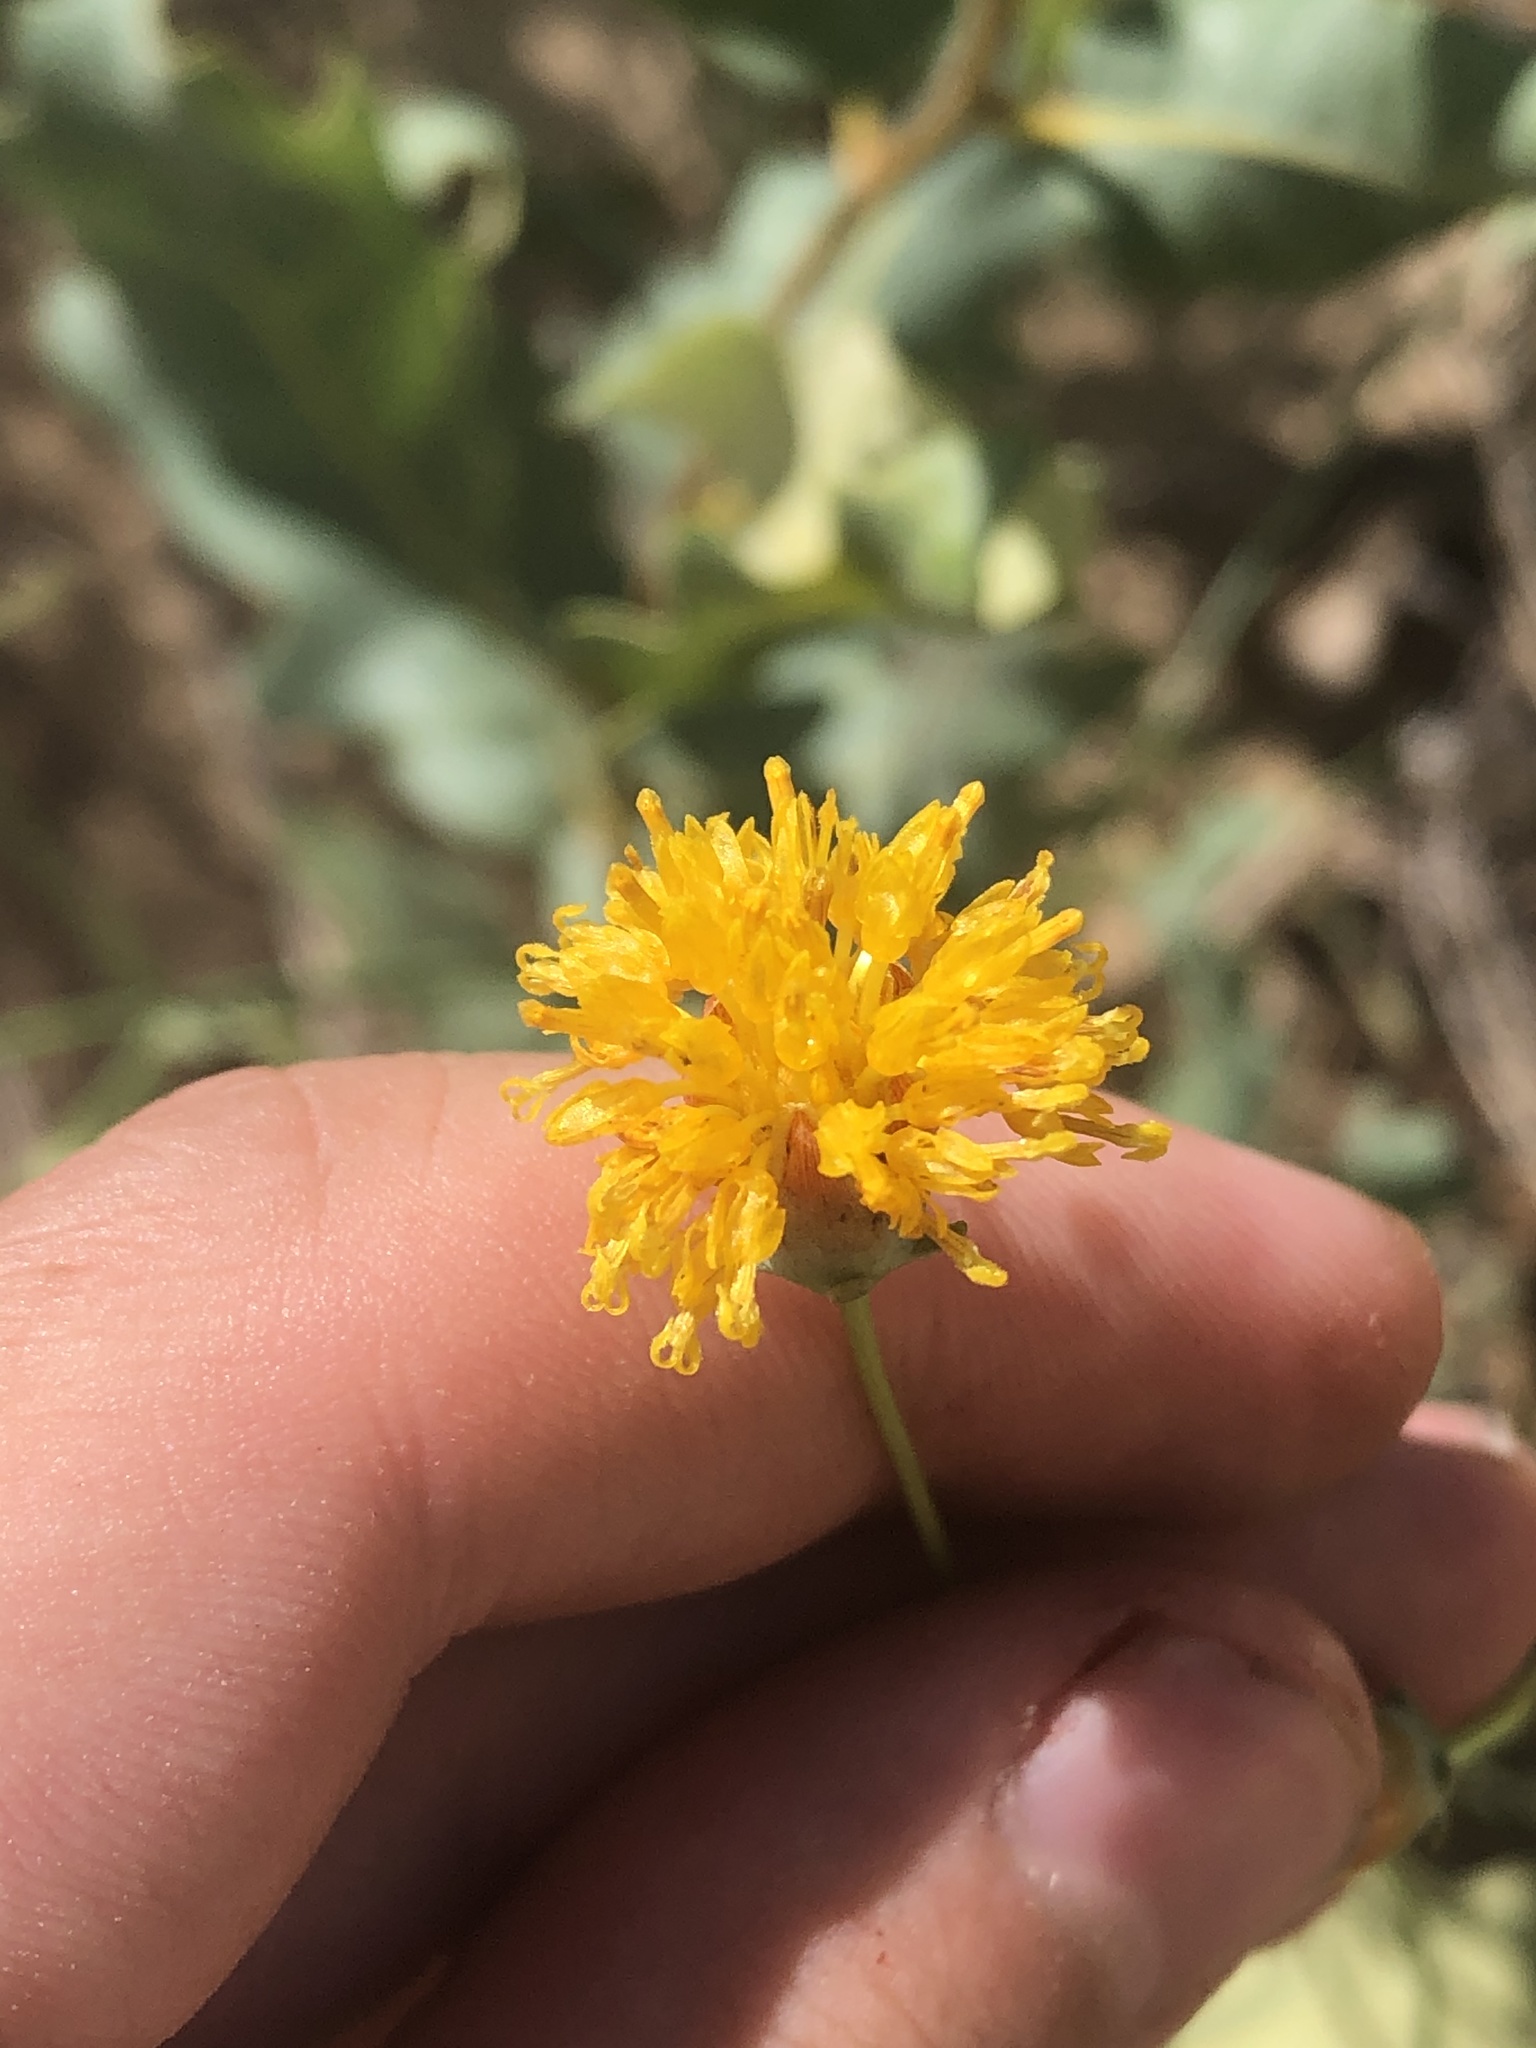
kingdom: Plantae
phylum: Tracheophyta
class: Magnoliopsida
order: Asterales
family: Asteraceae
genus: Thelesperma
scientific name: Thelesperma megapotamicum
